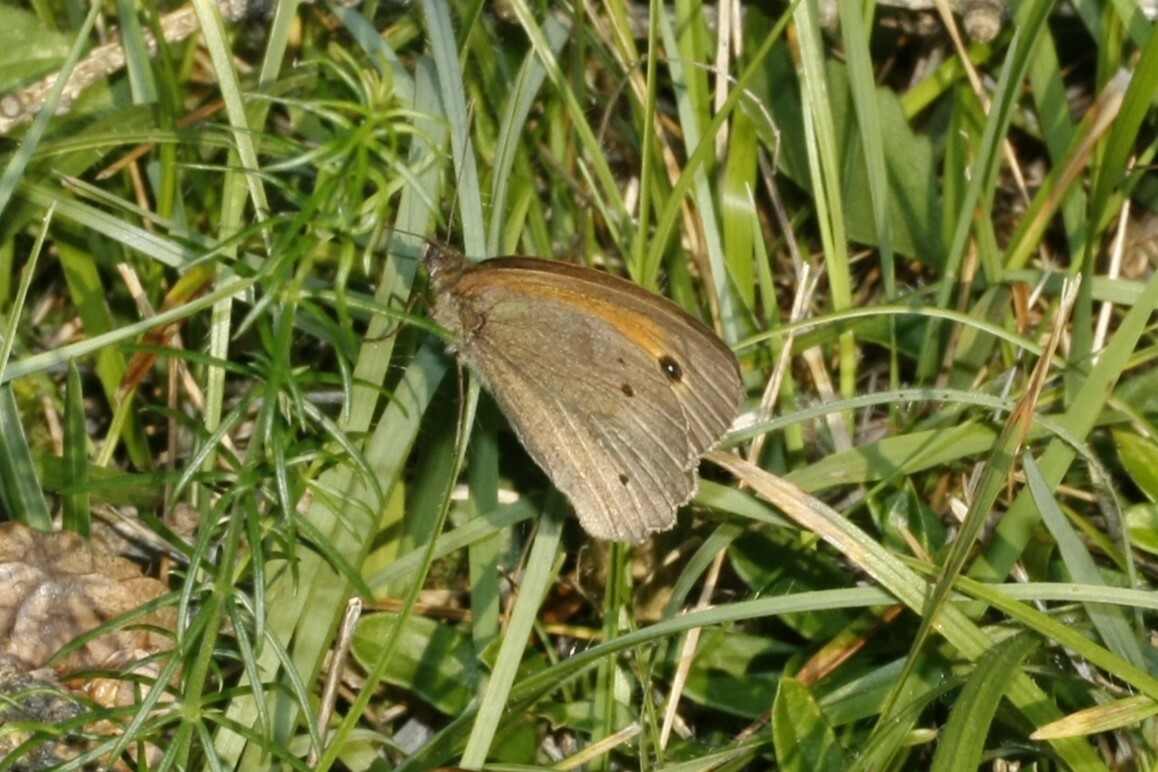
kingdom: Animalia
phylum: Arthropoda
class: Insecta
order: Lepidoptera
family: Nymphalidae
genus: Maniola
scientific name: Maniola jurtina
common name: Meadow brown
